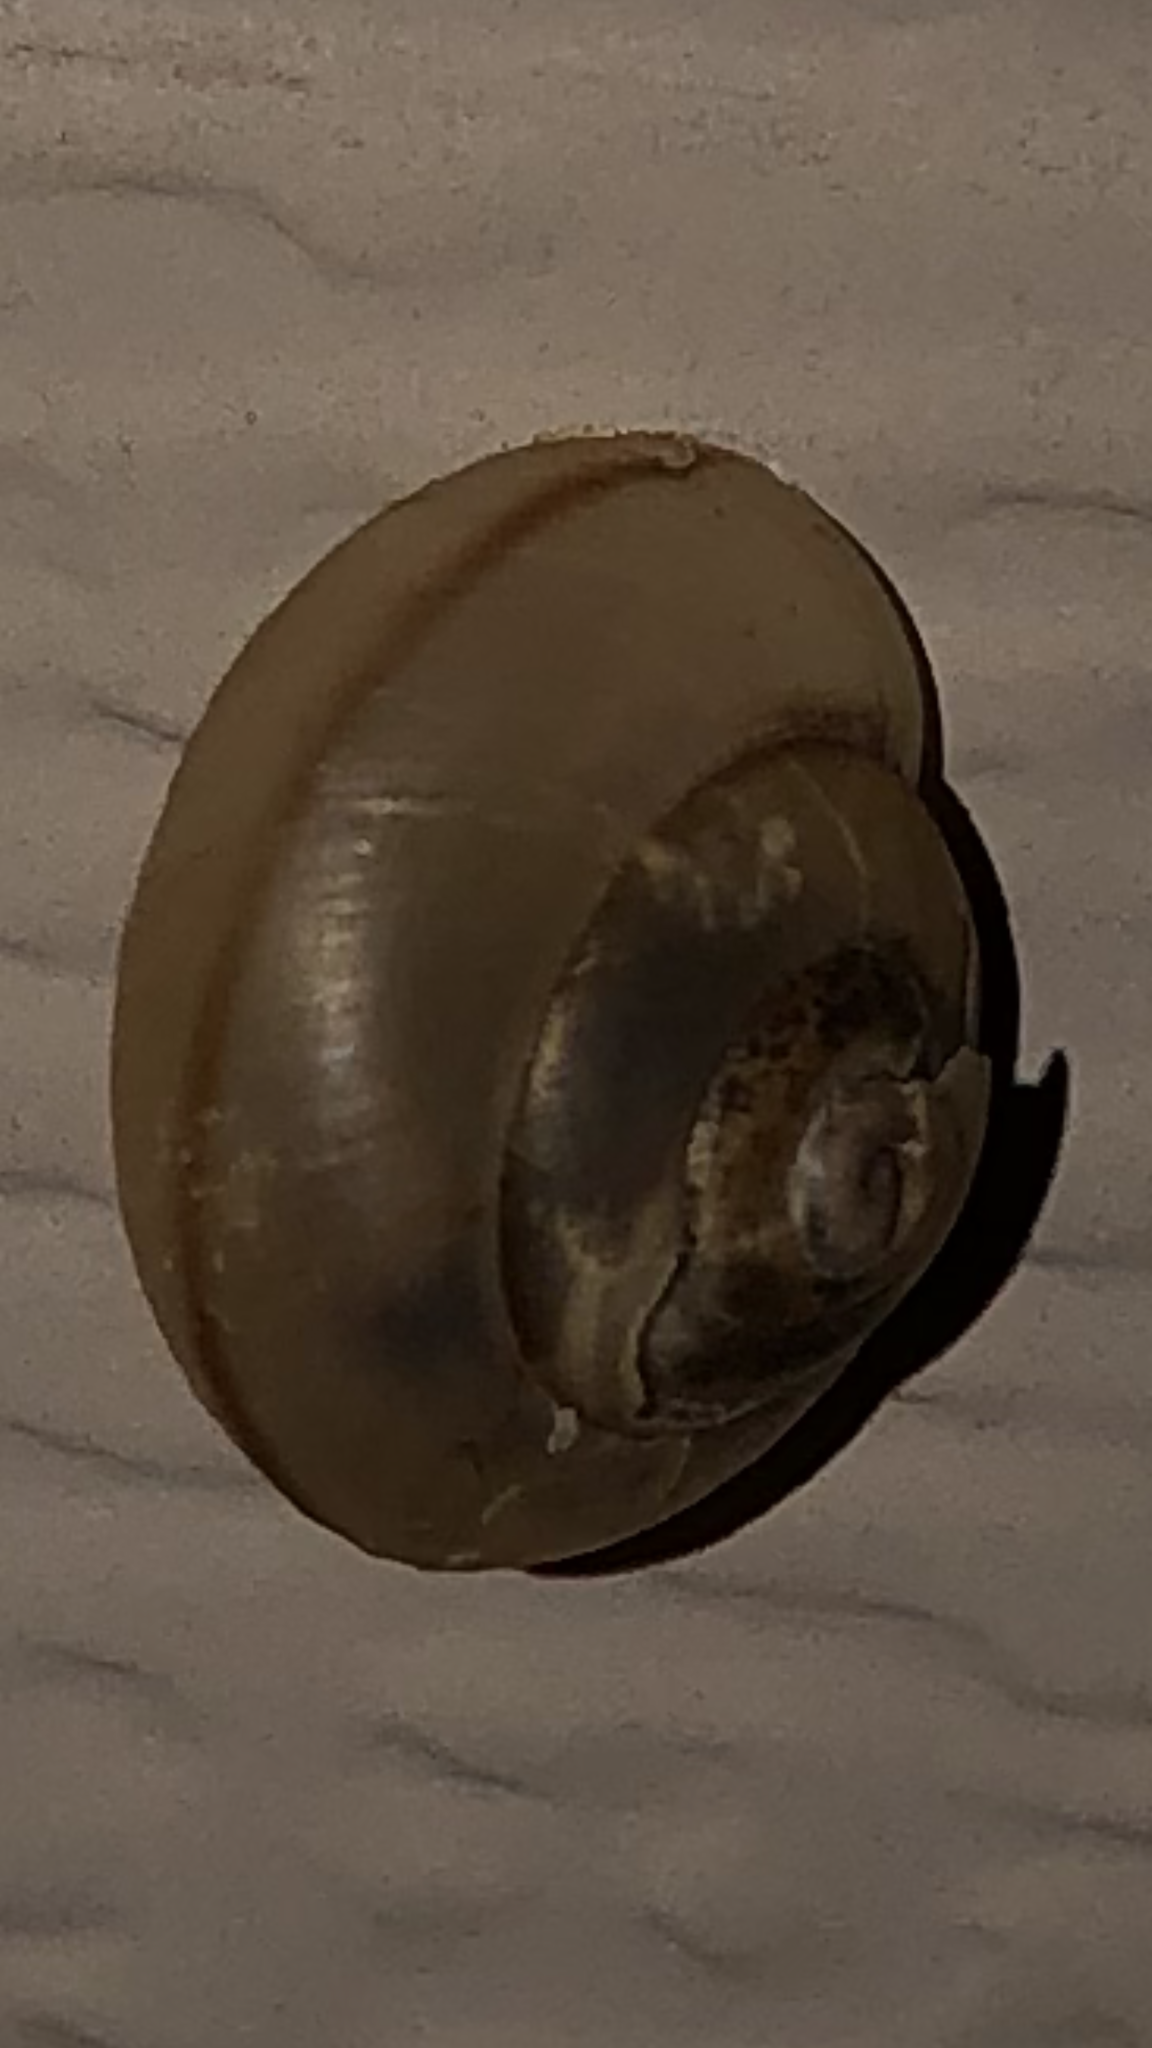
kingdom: Animalia
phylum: Mollusca
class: Gastropoda
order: Stylommatophora
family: Camaenidae
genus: Bradybaena
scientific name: Bradybaena similaris
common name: Asian trampsnail
